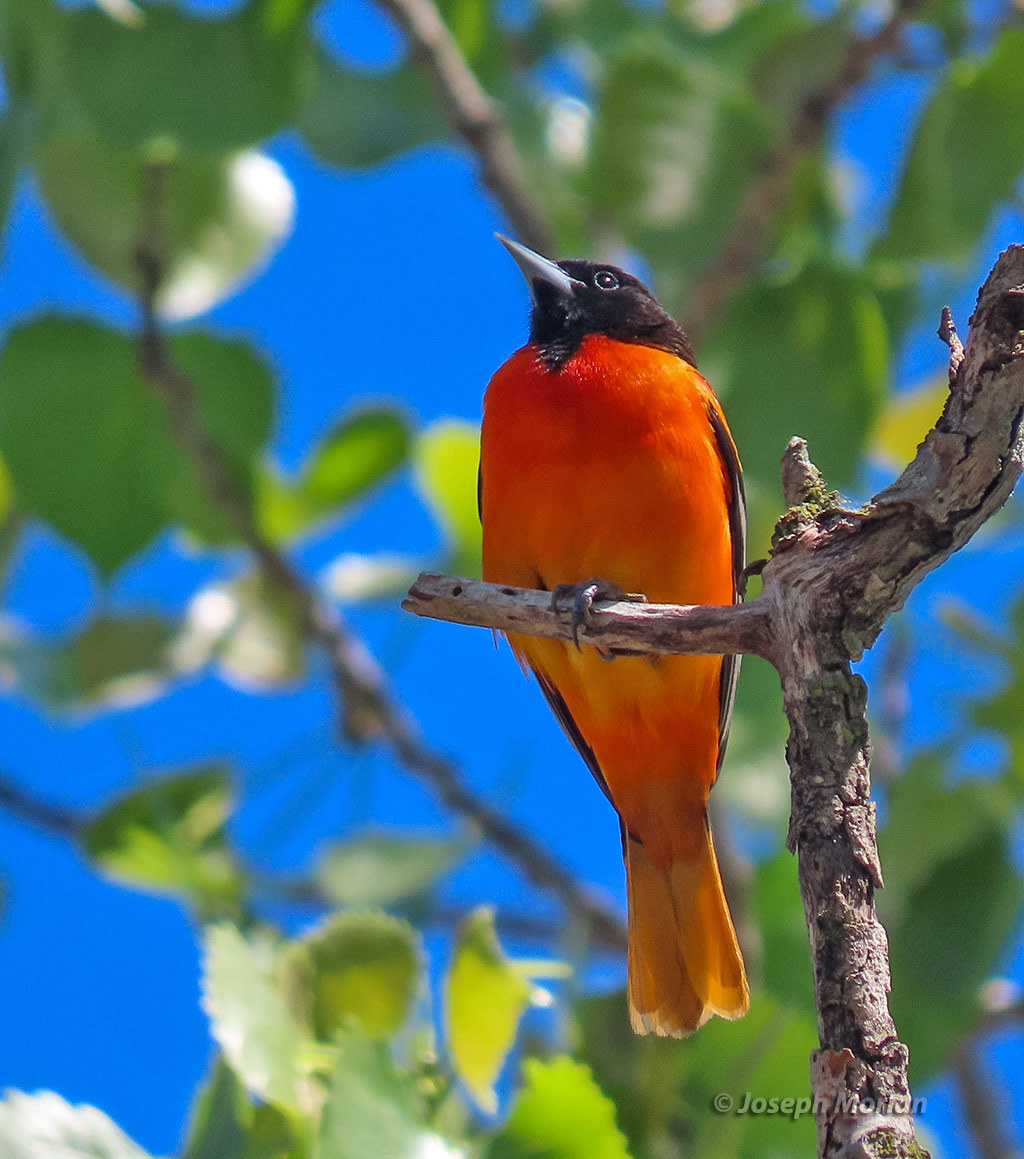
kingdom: Animalia
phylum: Chordata
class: Aves
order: Passeriformes
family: Icteridae
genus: Icterus
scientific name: Icterus galbula
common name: Baltimore oriole
